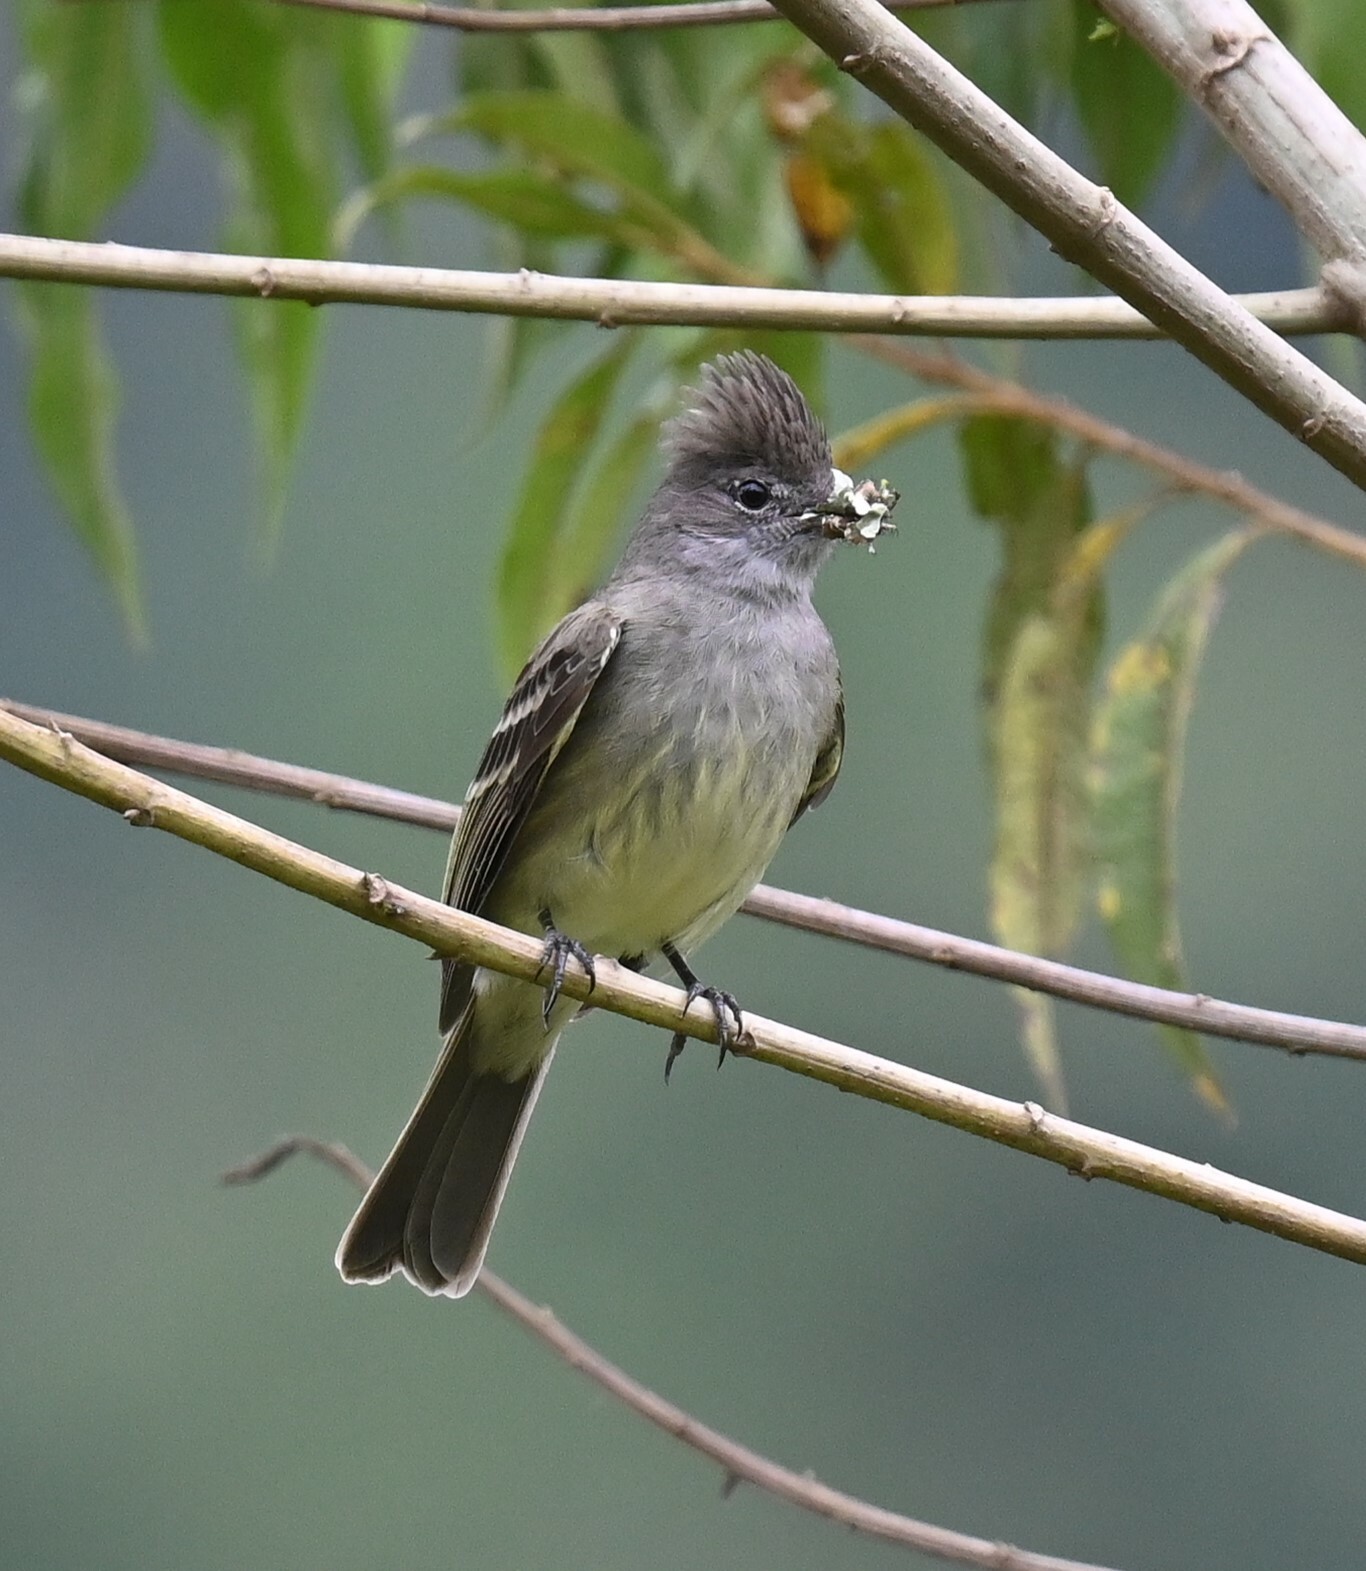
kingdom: Animalia
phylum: Chordata
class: Aves
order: Passeriformes
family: Tyrannidae
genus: Elaenia
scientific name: Elaenia flavogaster
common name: Yellow-bellied elaenia
